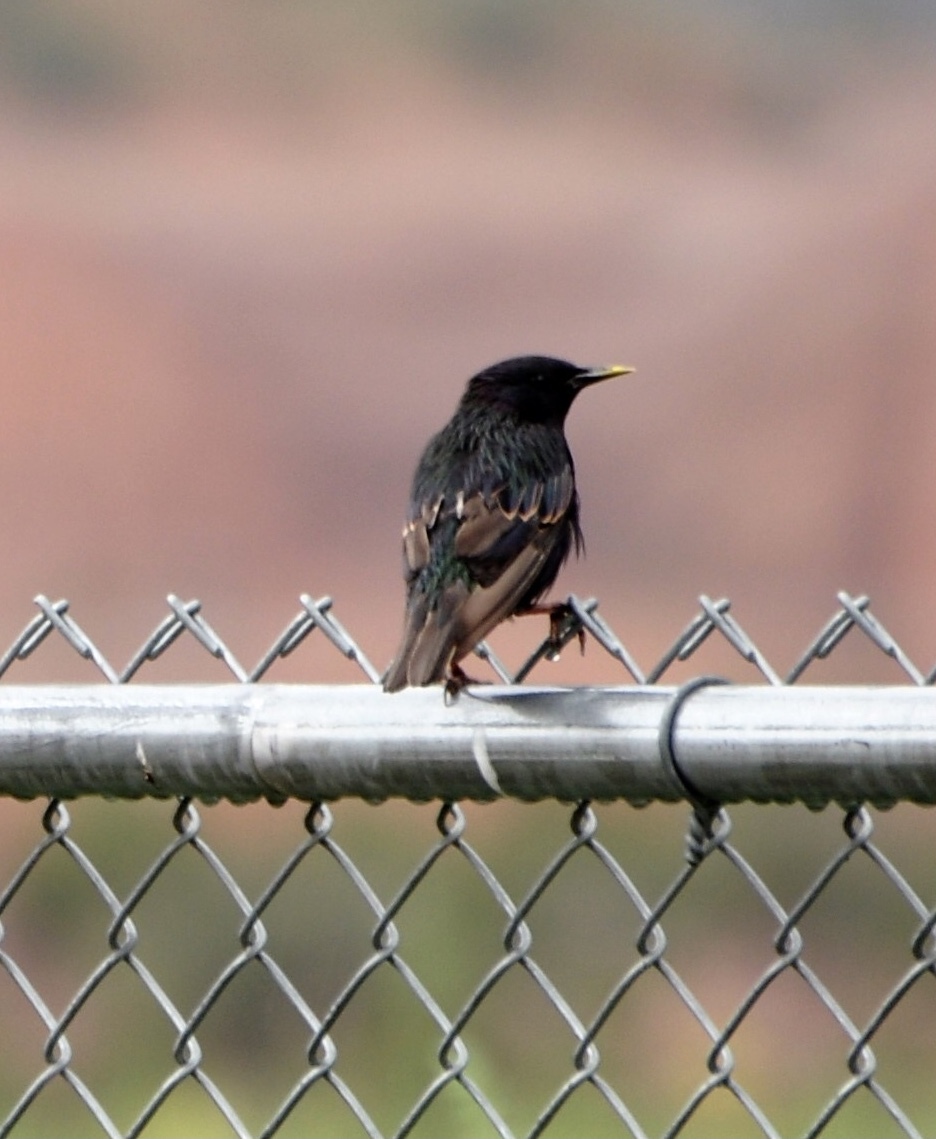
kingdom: Animalia
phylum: Chordata
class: Aves
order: Passeriformes
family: Sturnidae
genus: Sturnus
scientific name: Sturnus vulgaris
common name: Common starling
